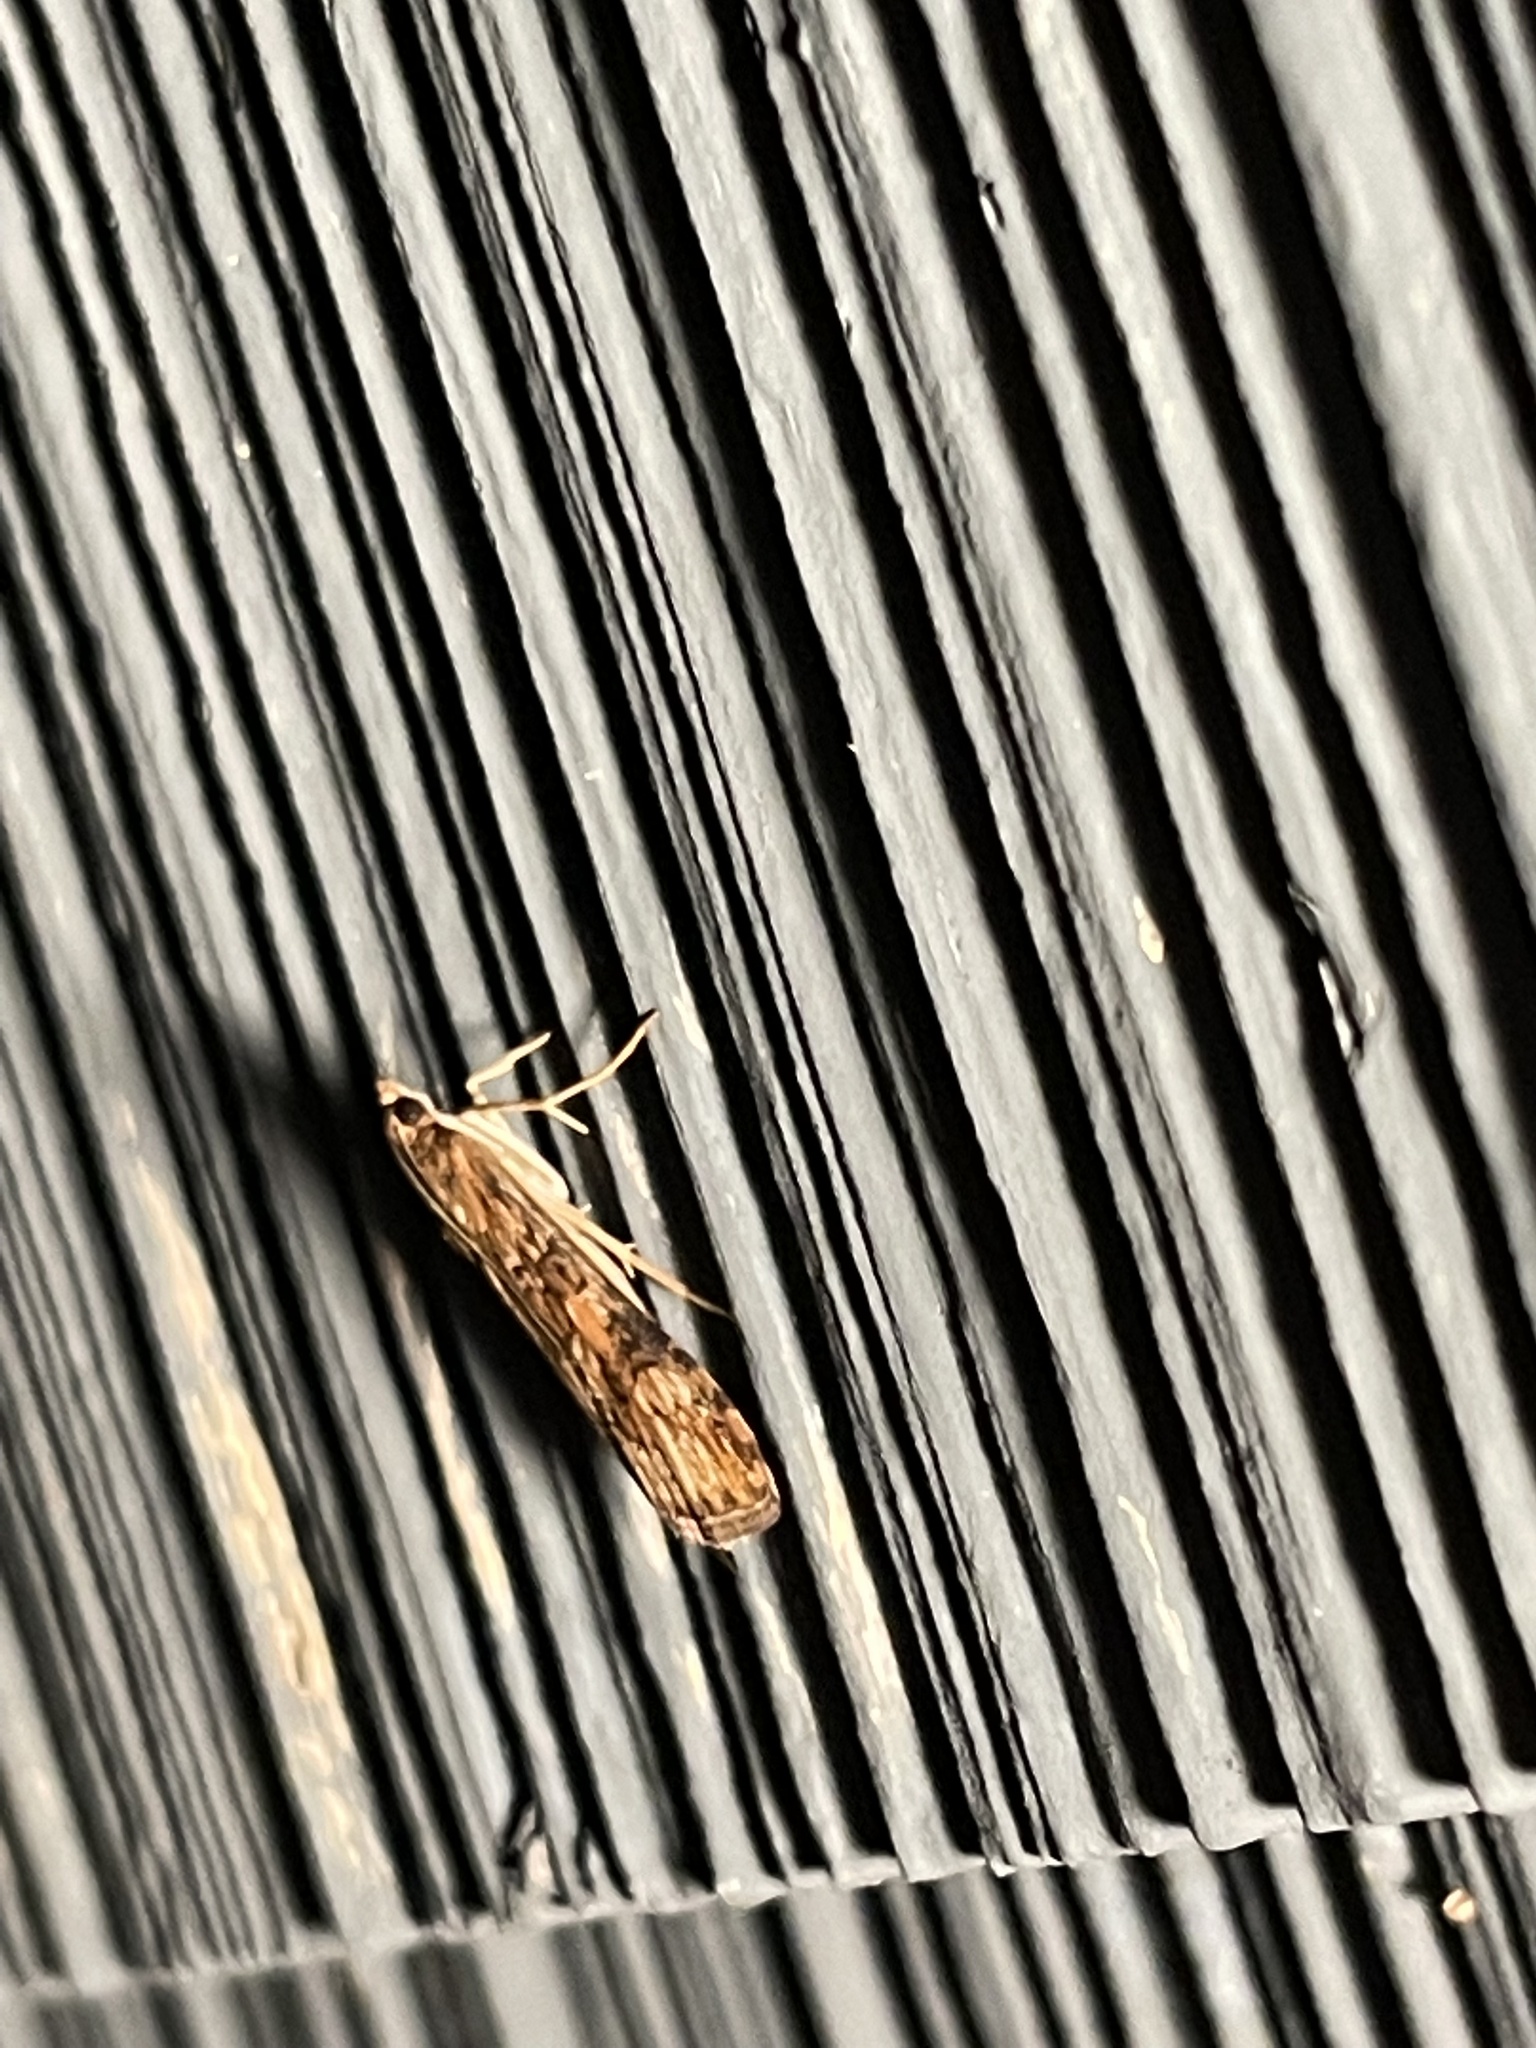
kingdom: Animalia
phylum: Arthropoda
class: Insecta
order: Lepidoptera
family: Crambidae
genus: Nomophila
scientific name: Nomophila nearctica
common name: American rush veneer
